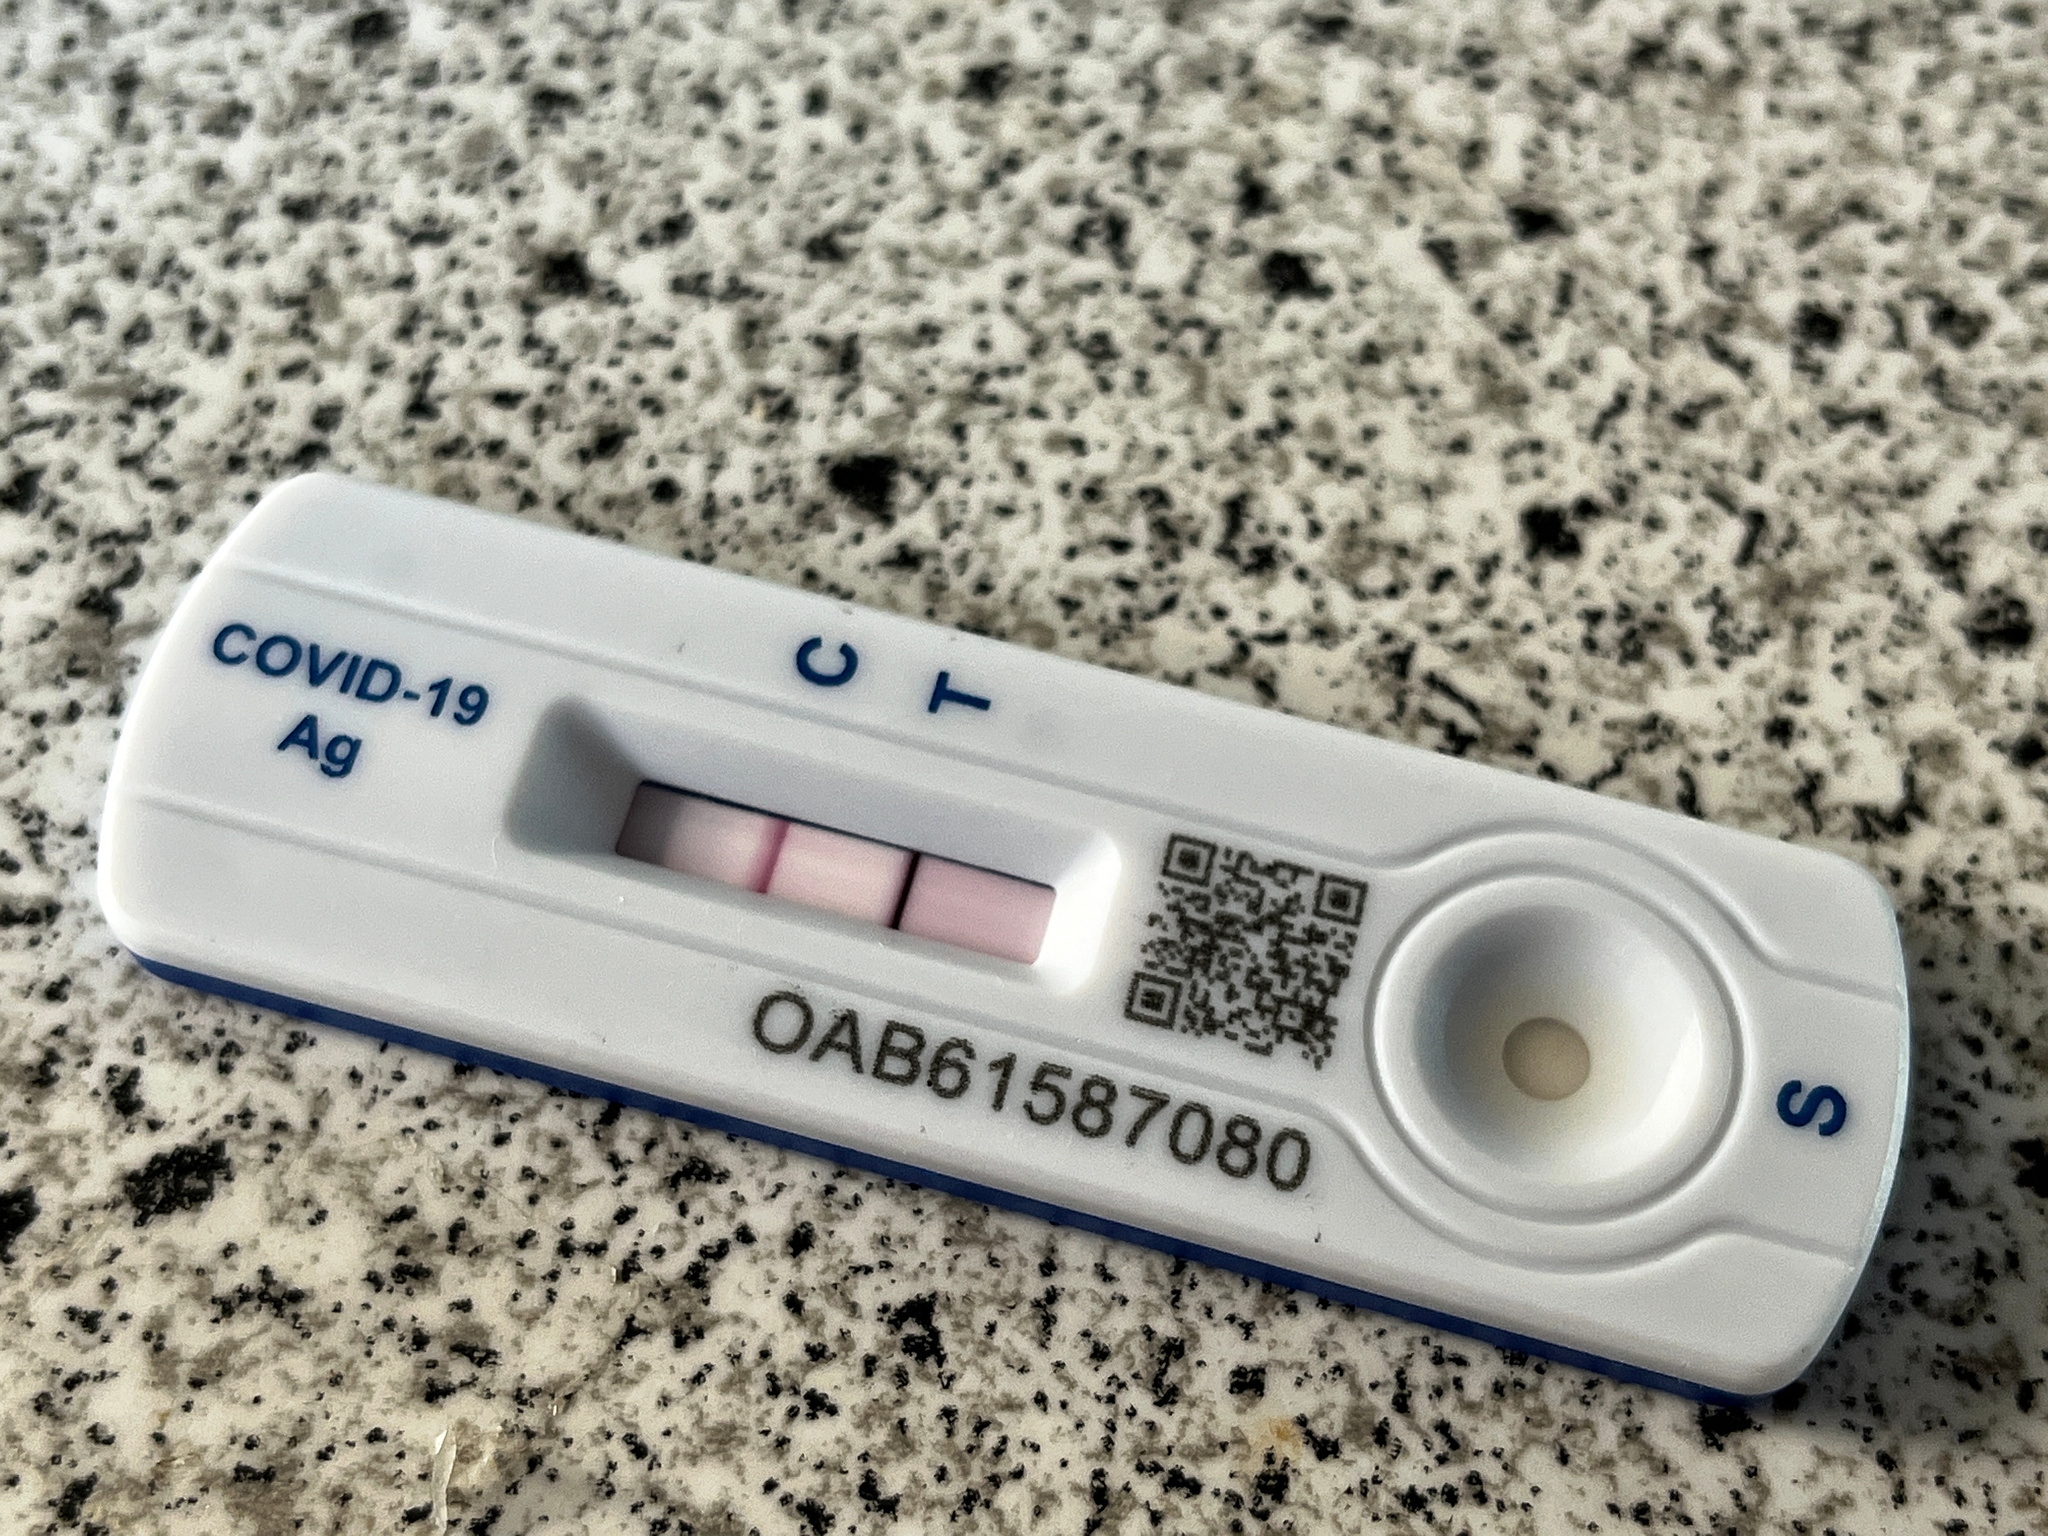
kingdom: Viruses
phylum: Pisuviricota
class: Pisoniviricetes
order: Nidovirales
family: Coronaviridae
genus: Betacoronavirus
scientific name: Betacoronavirus
